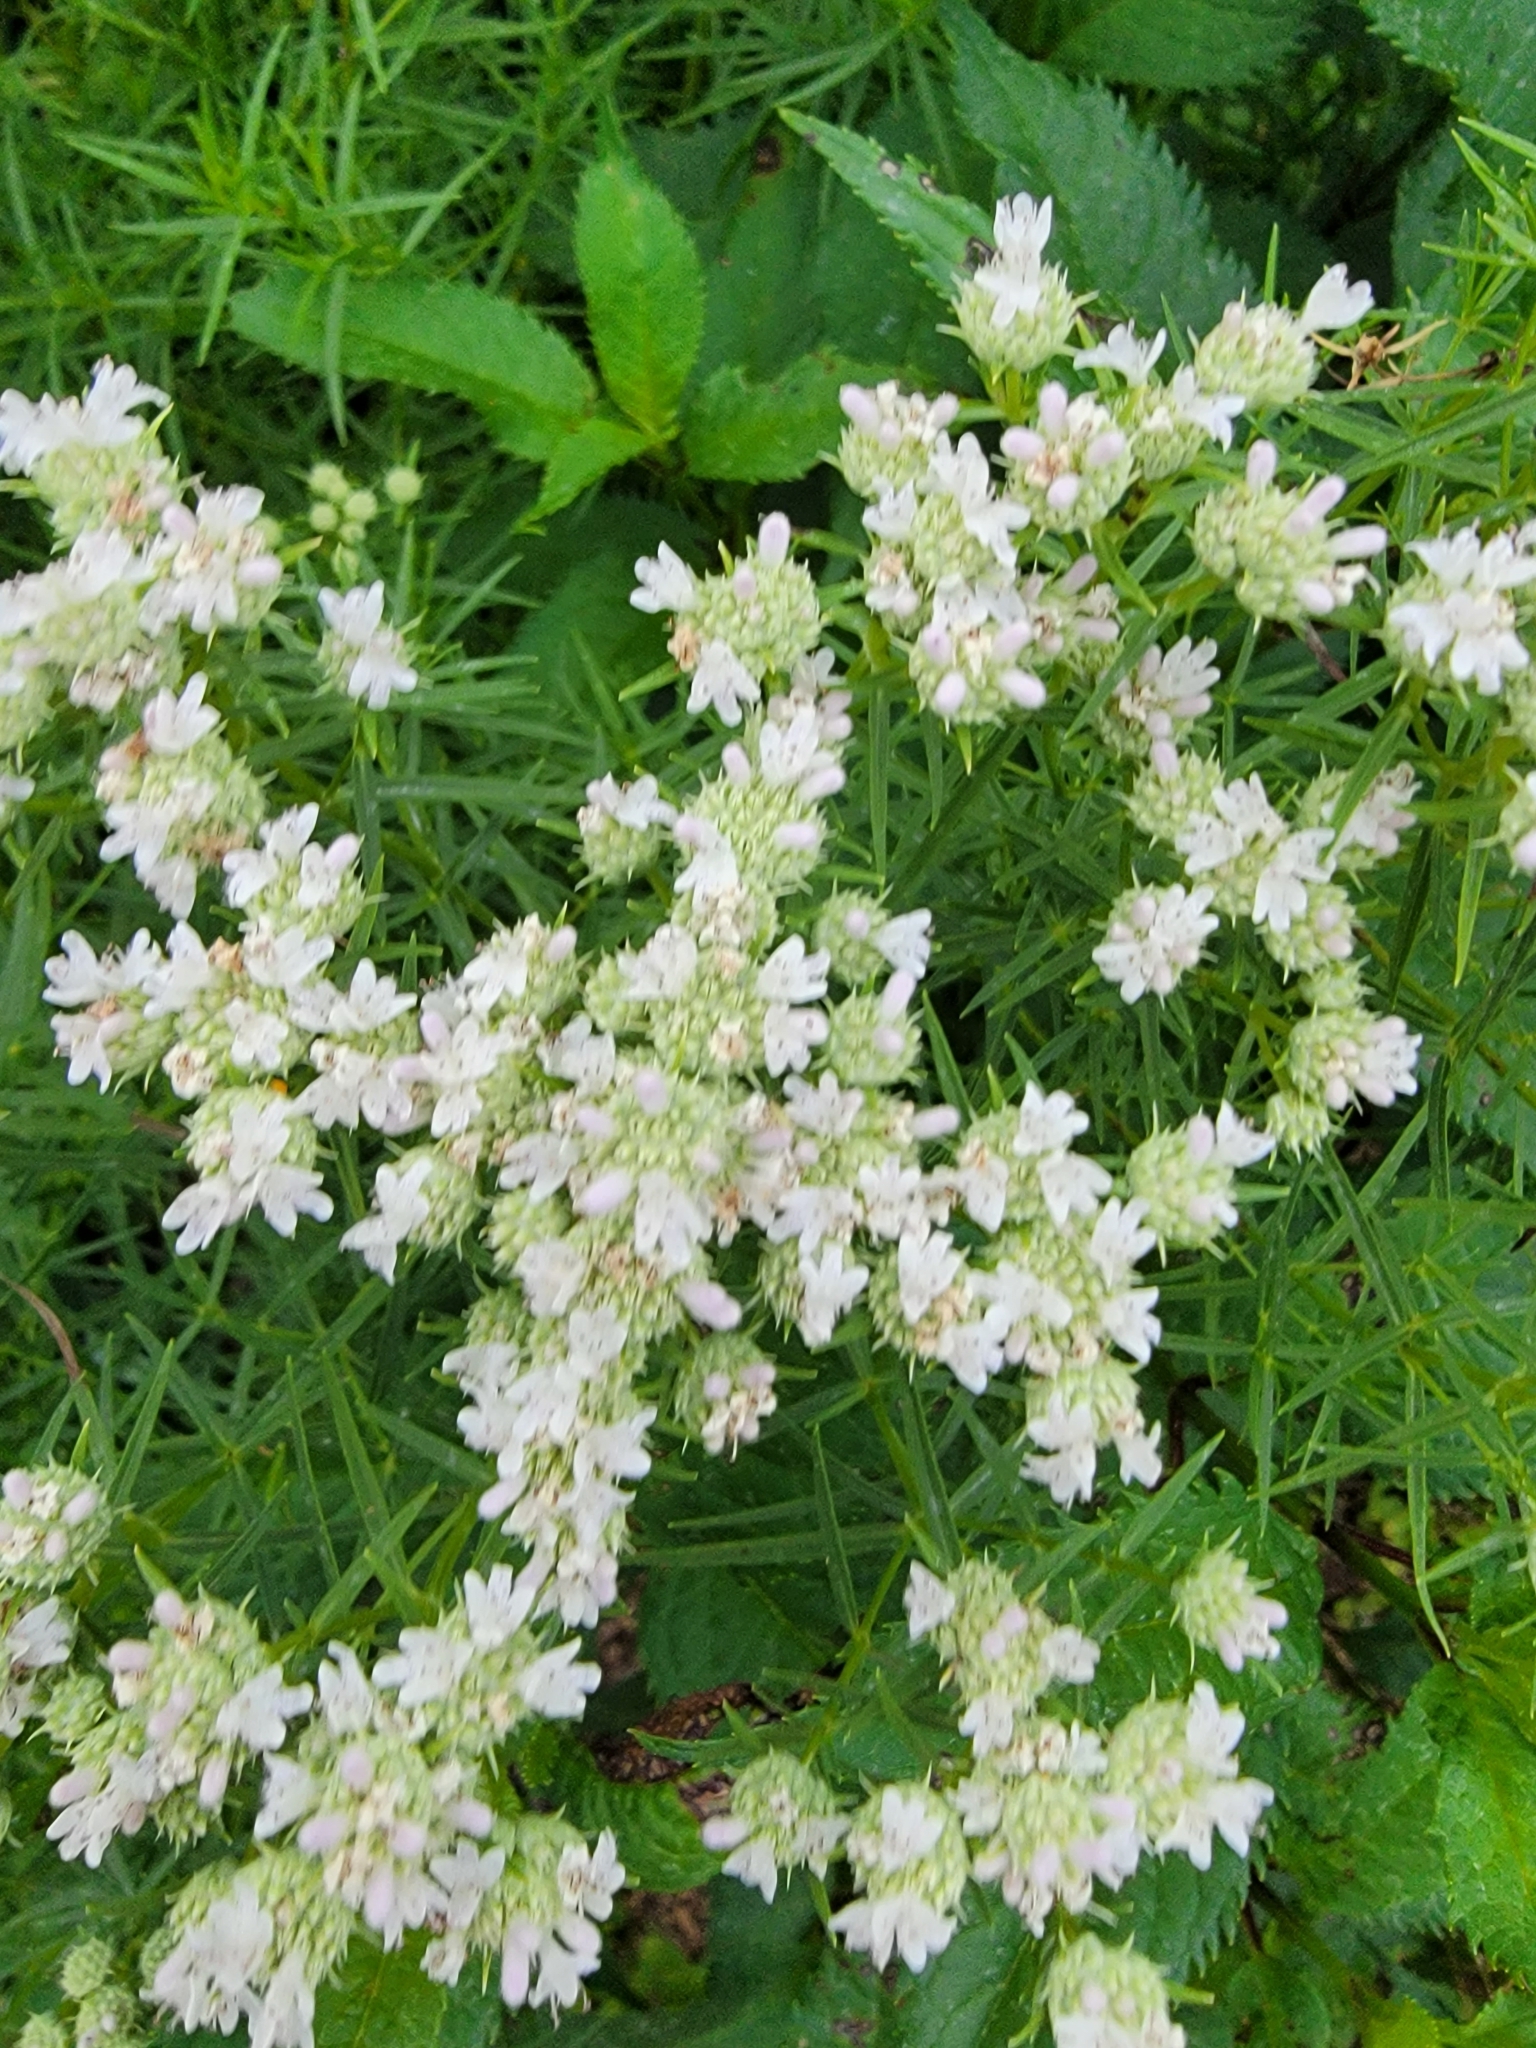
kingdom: Plantae
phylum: Tracheophyta
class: Magnoliopsida
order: Lamiales
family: Lamiaceae
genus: Pycnanthemum
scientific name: Pycnanthemum tenuifolium
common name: Narrow-leaf mountain-mint
